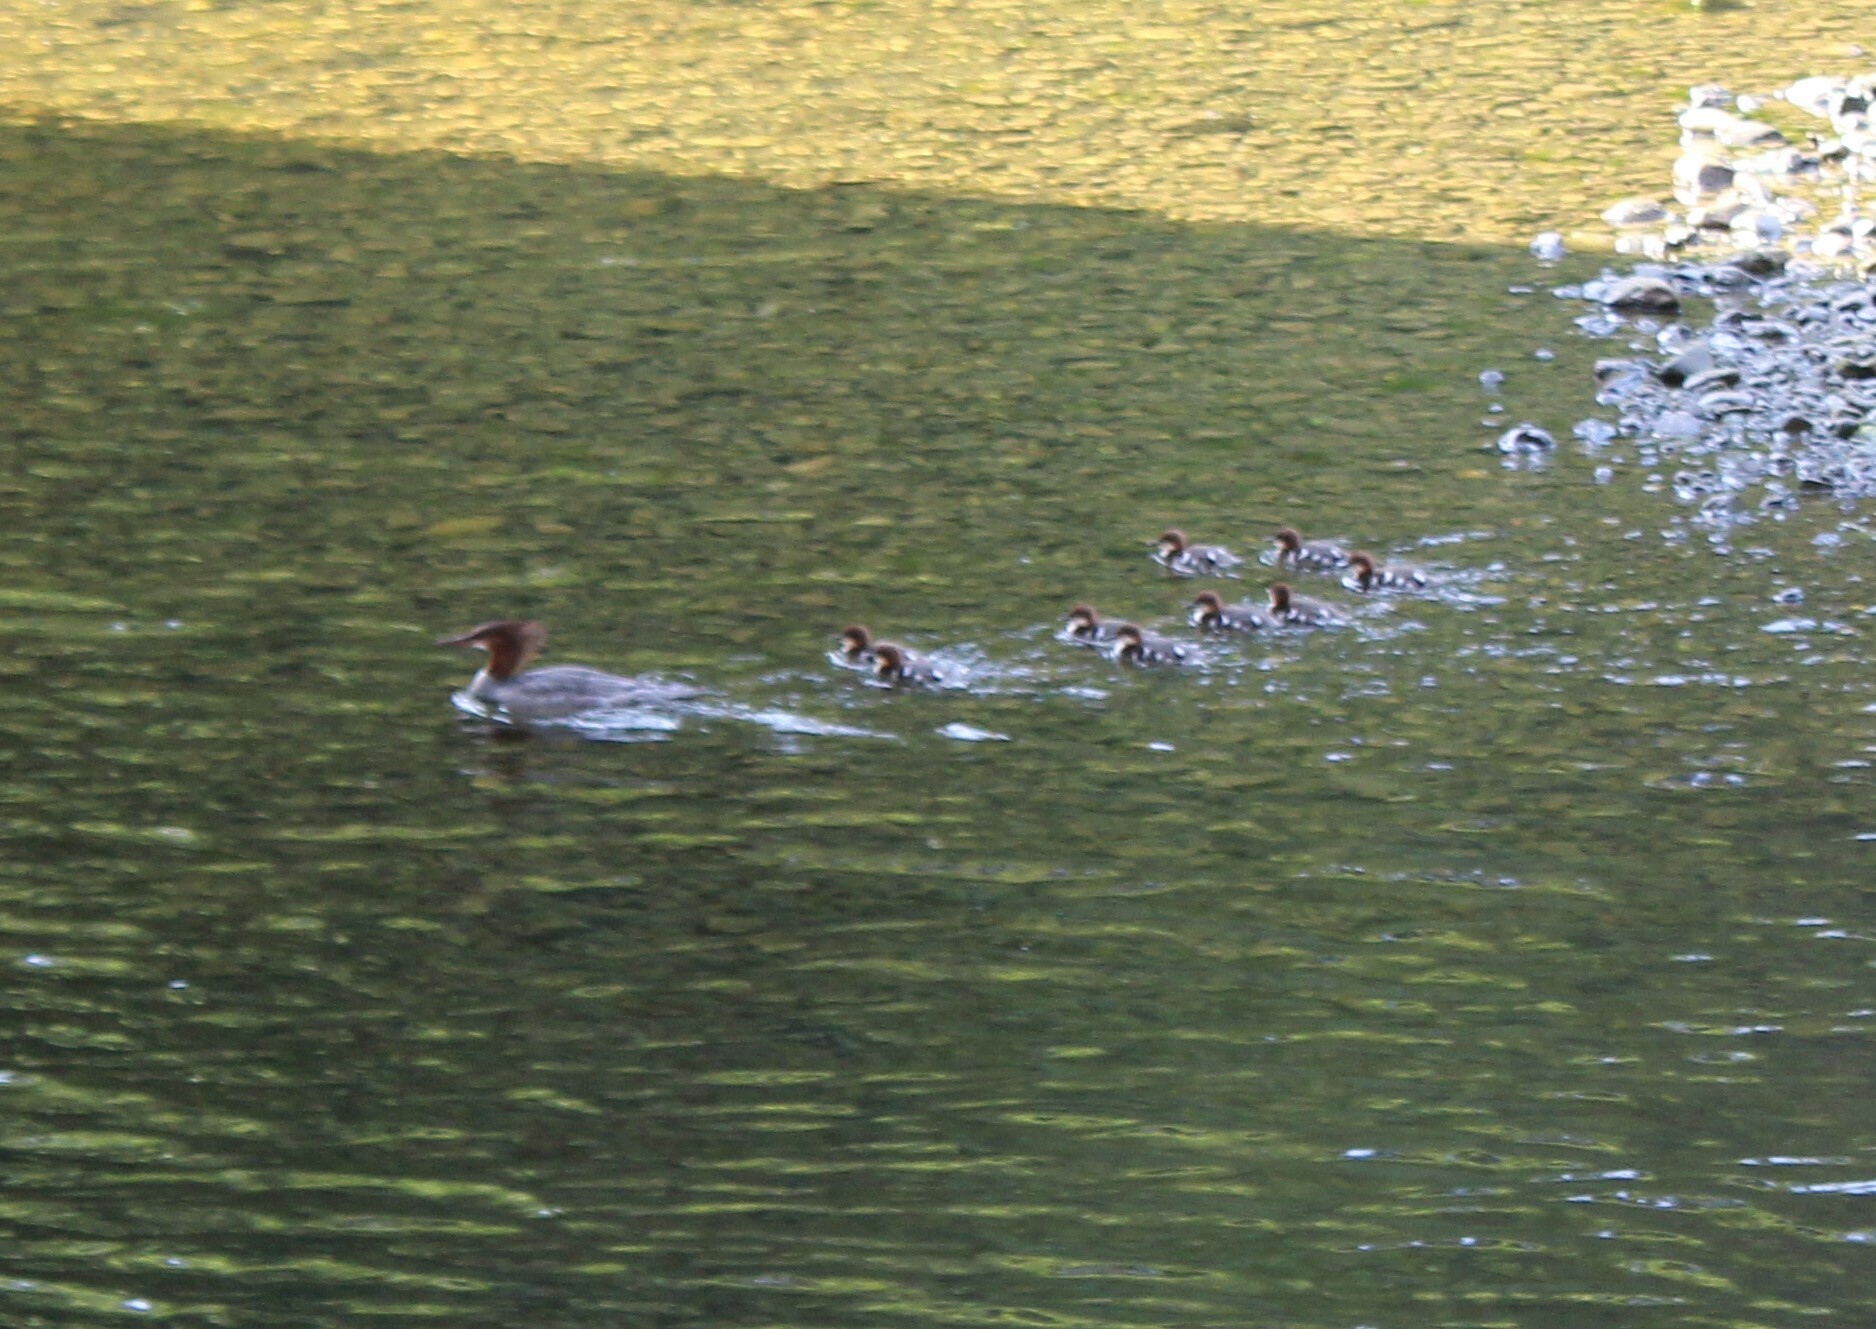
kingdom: Animalia
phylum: Chordata
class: Aves
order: Anseriformes
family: Anatidae
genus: Mergus
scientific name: Mergus merganser
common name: Common merganser
